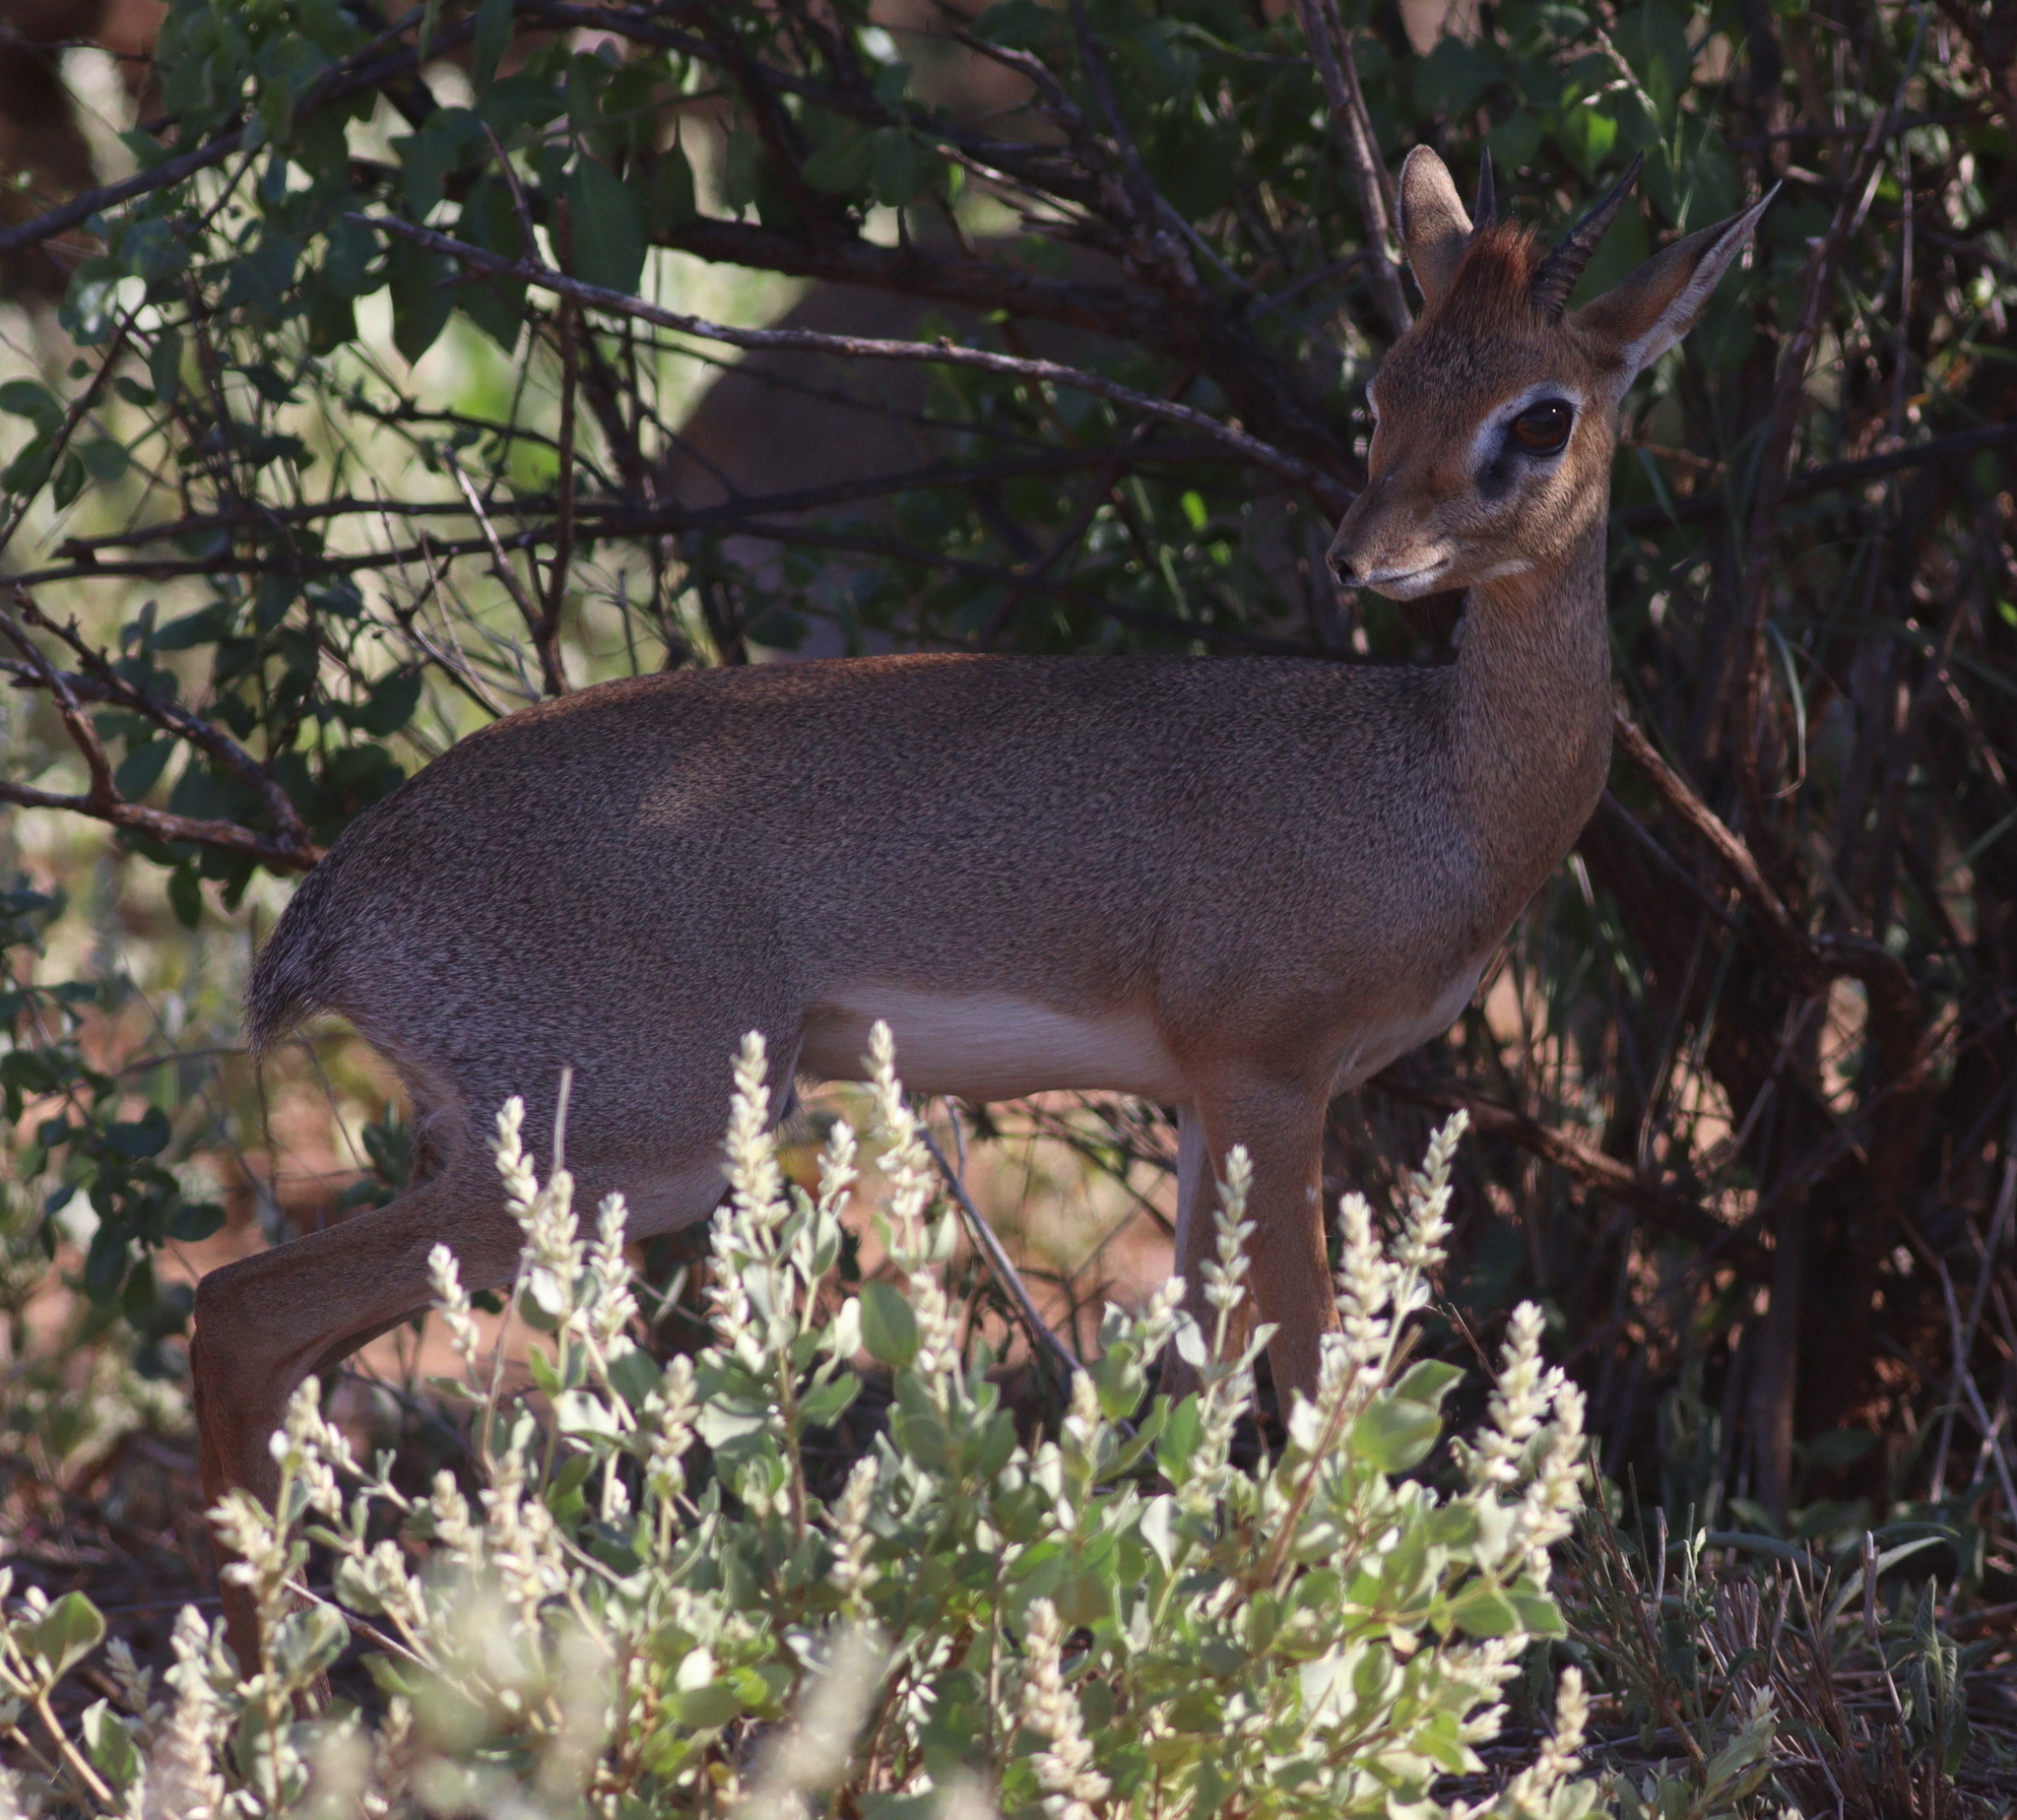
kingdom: Animalia
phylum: Chordata
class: Mammalia
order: Artiodactyla
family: Bovidae
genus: Madoqua
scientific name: Madoqua kirkii
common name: Kirk's dik-dik
